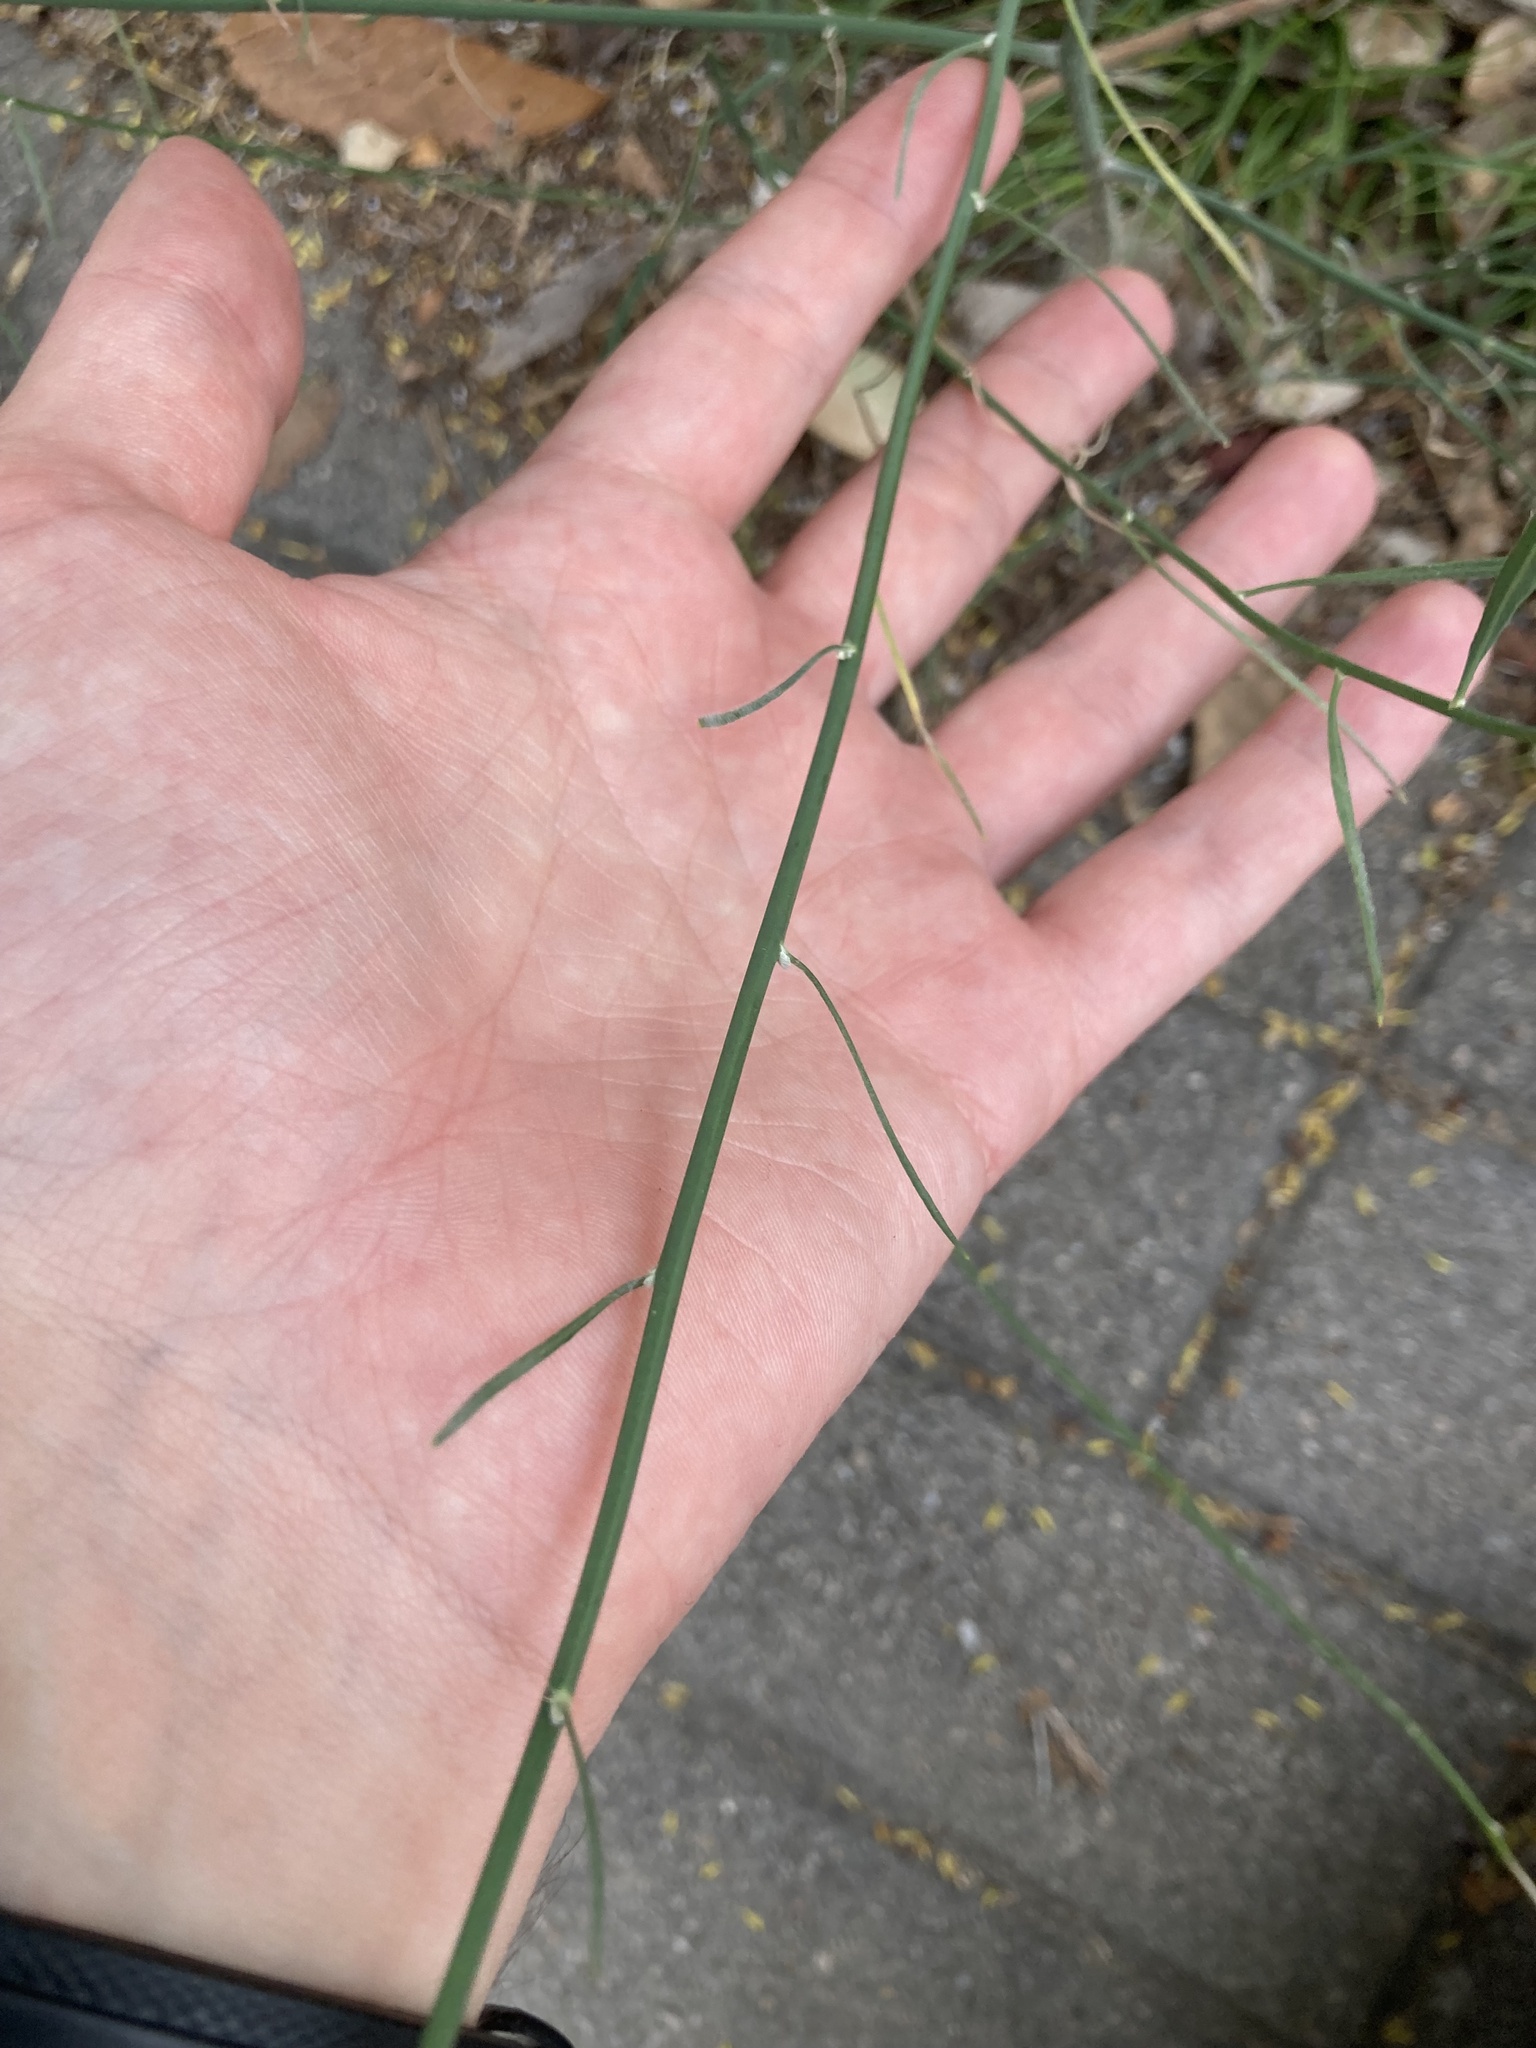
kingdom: Plantae
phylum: Tracheophyta
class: Magnoliopsida
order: Asterales
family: Asteraceae
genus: Chondrilla
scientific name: Chondrilla juncea
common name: Skeleton weed
